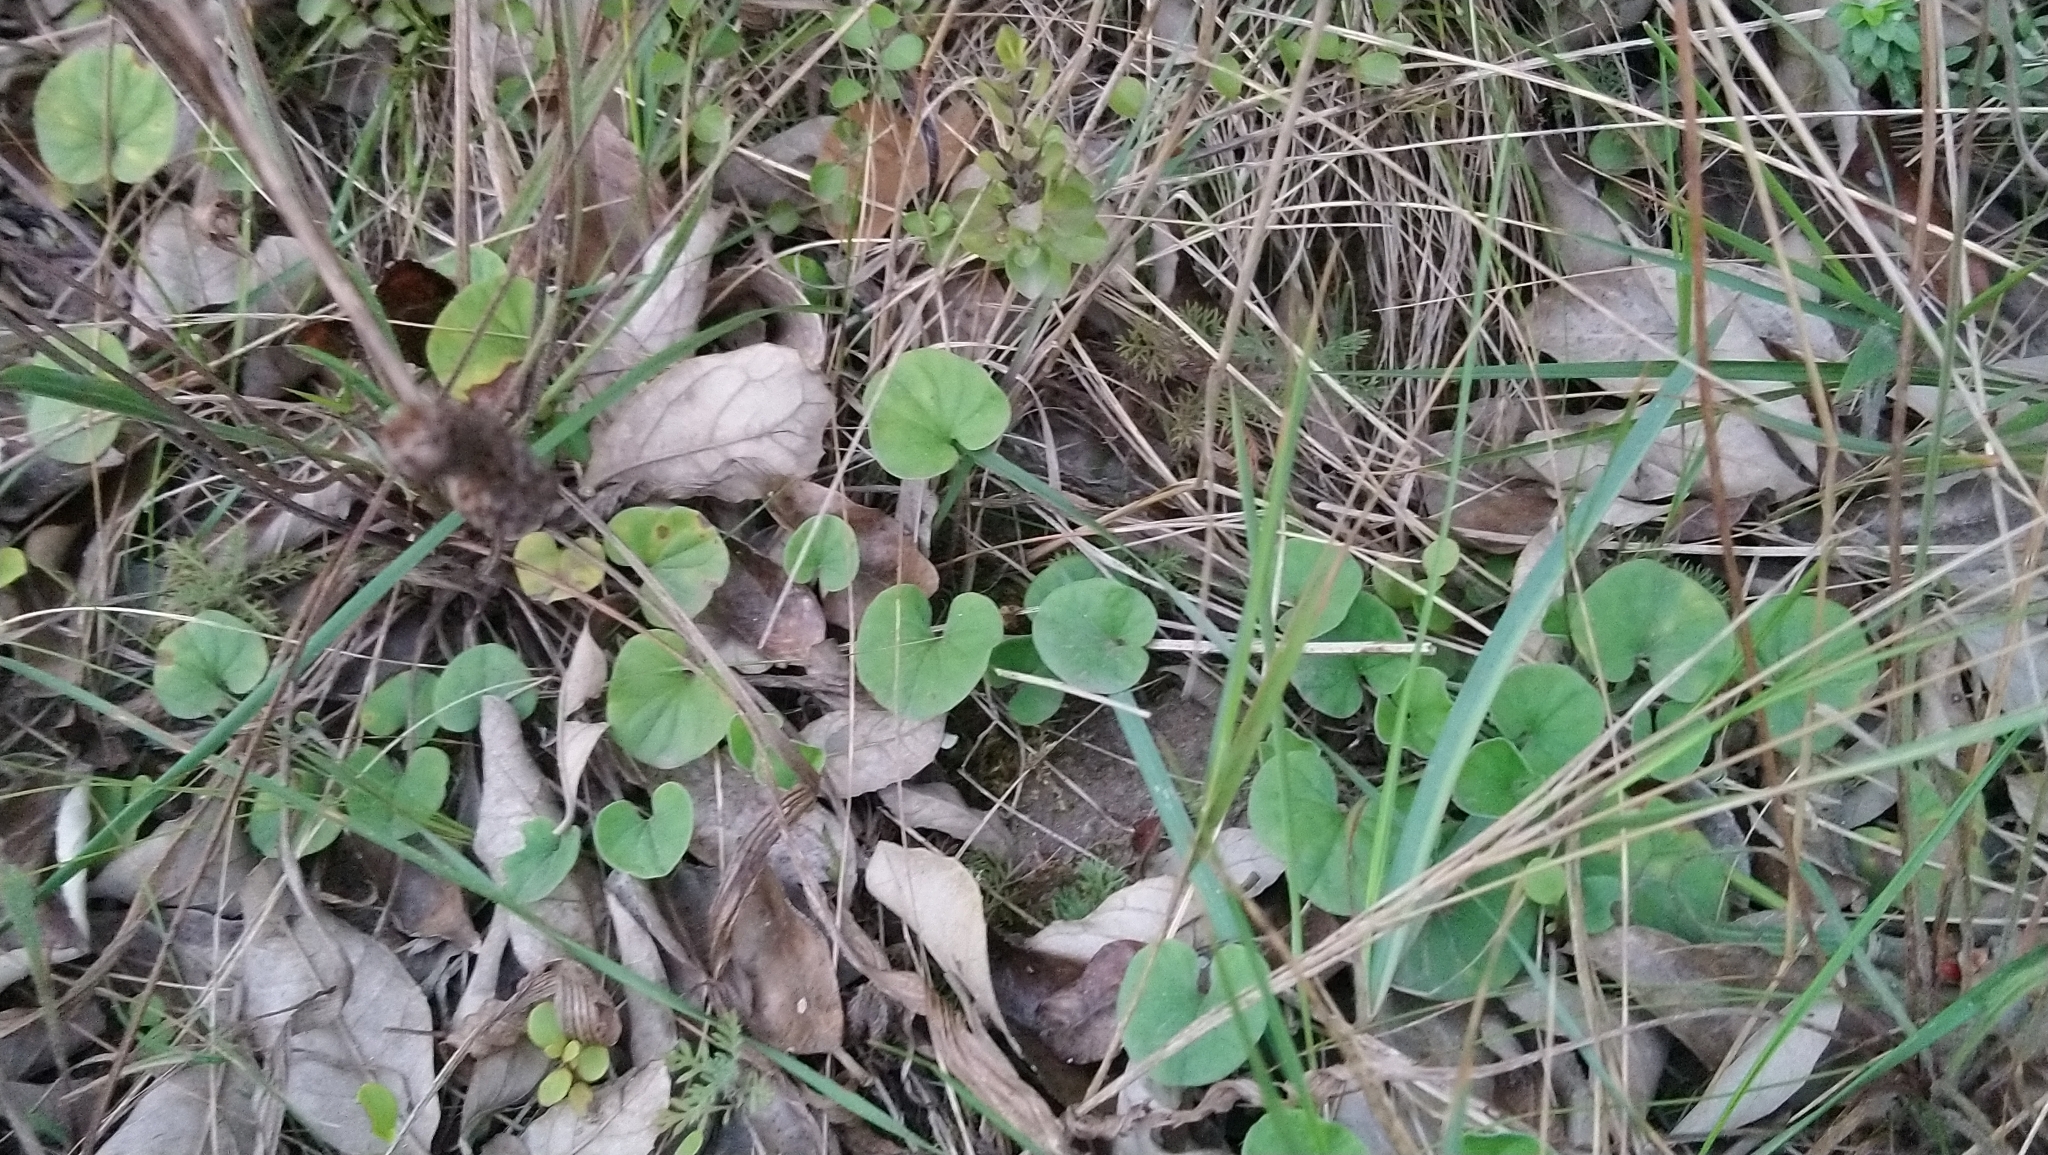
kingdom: Plantae
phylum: Tracheophyta
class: Magnoliopsida
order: Solanales
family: Convolvulaceae
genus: Dichondra
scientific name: Dichondra micrantha
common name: Kidneyweed
